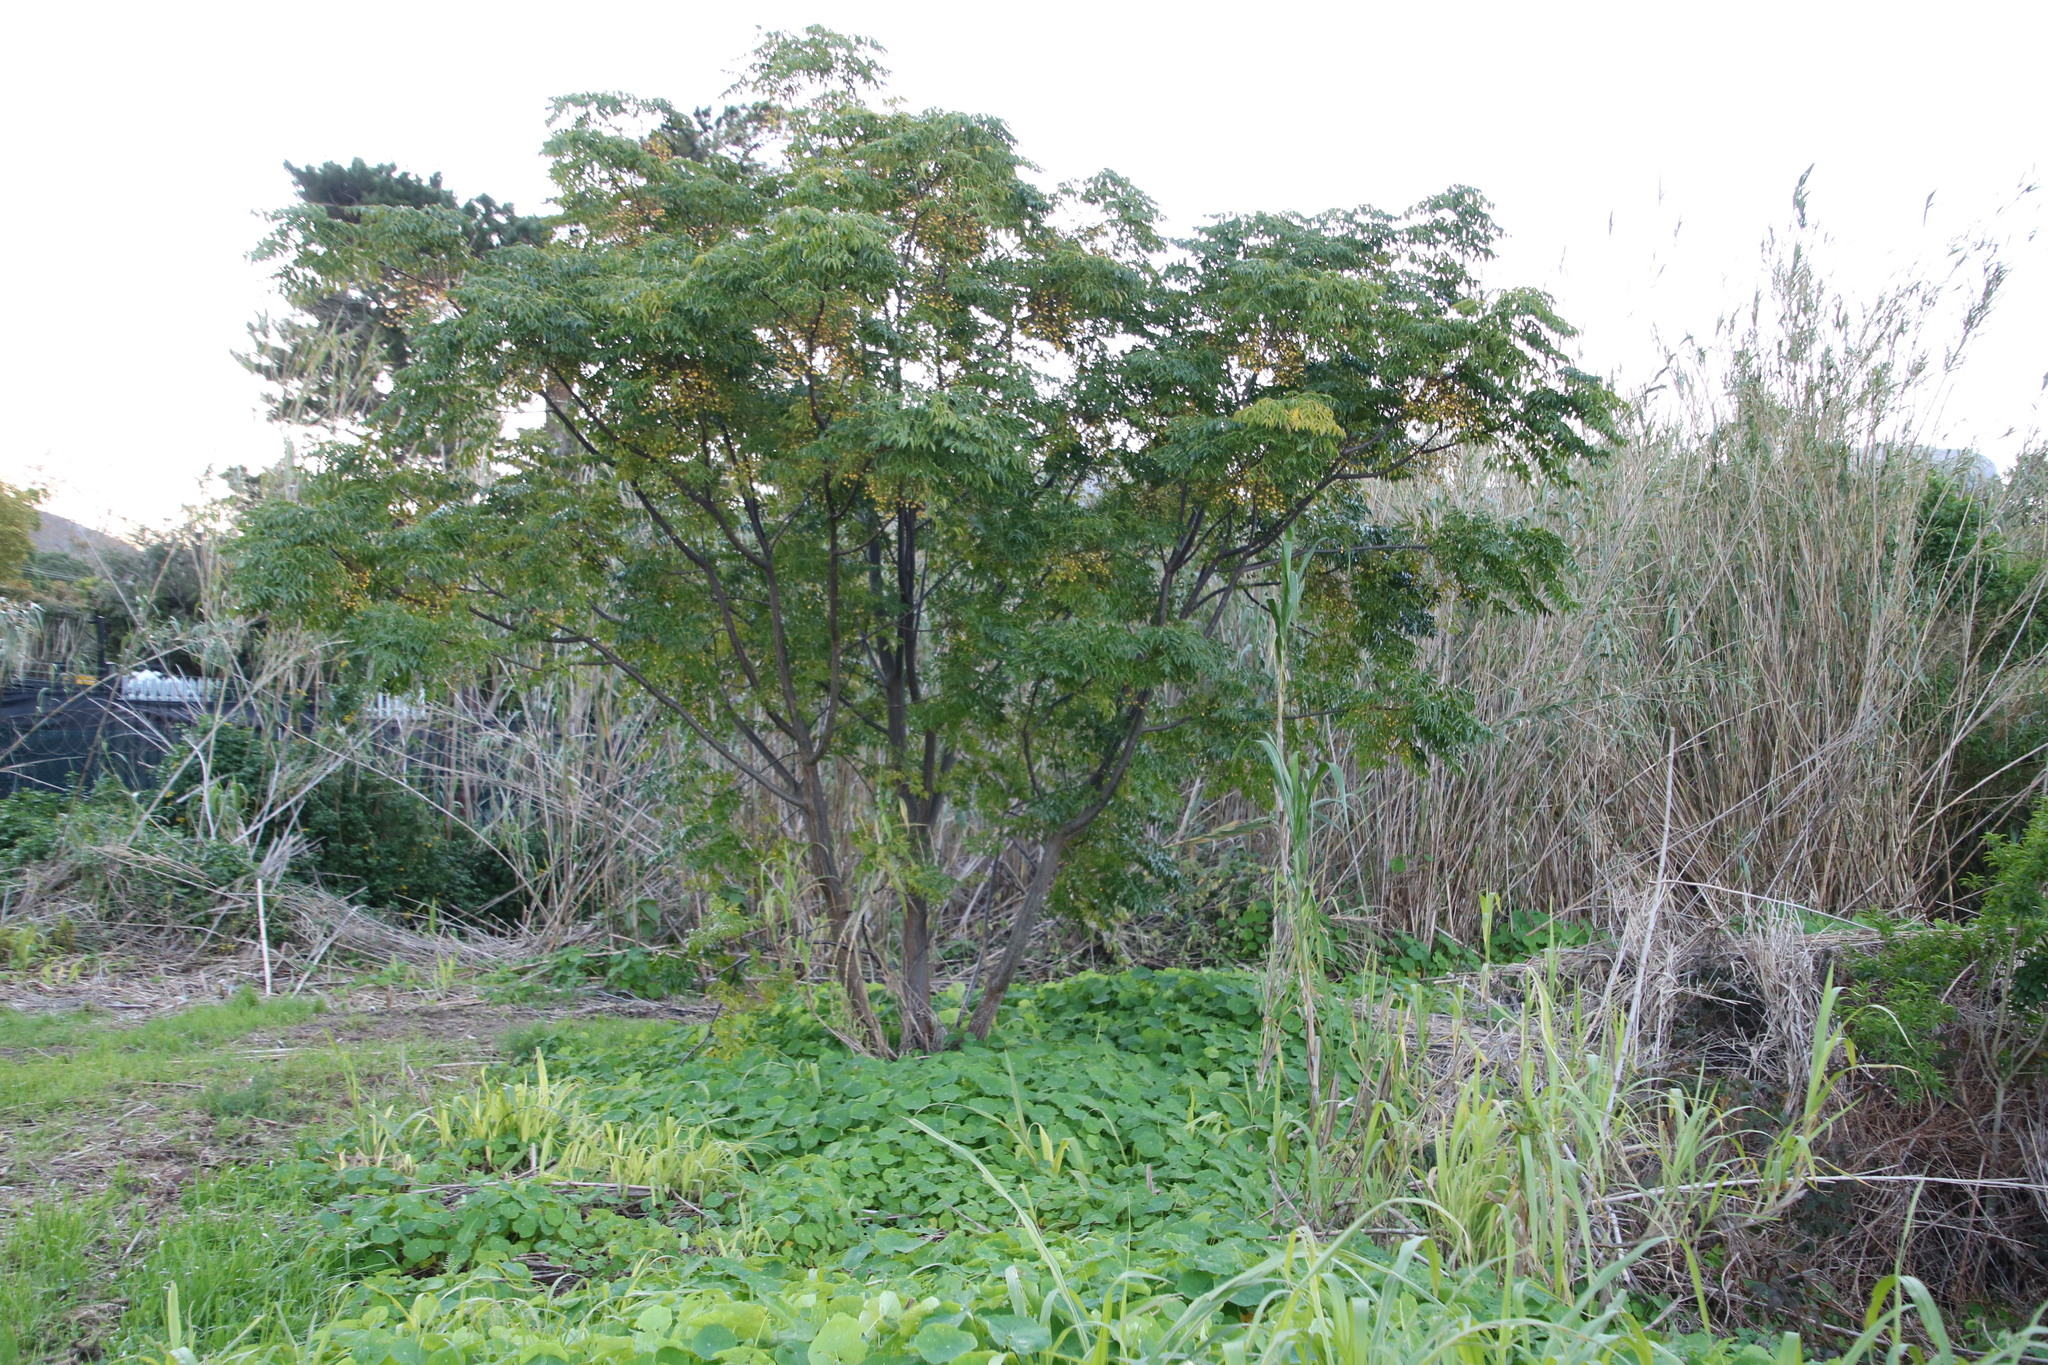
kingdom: Plantae
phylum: Tracheophyta
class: Magnoliopsida
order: Sapindales
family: Meliaceae
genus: Melia
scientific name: Melia azedarach
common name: Chinaberrytree
